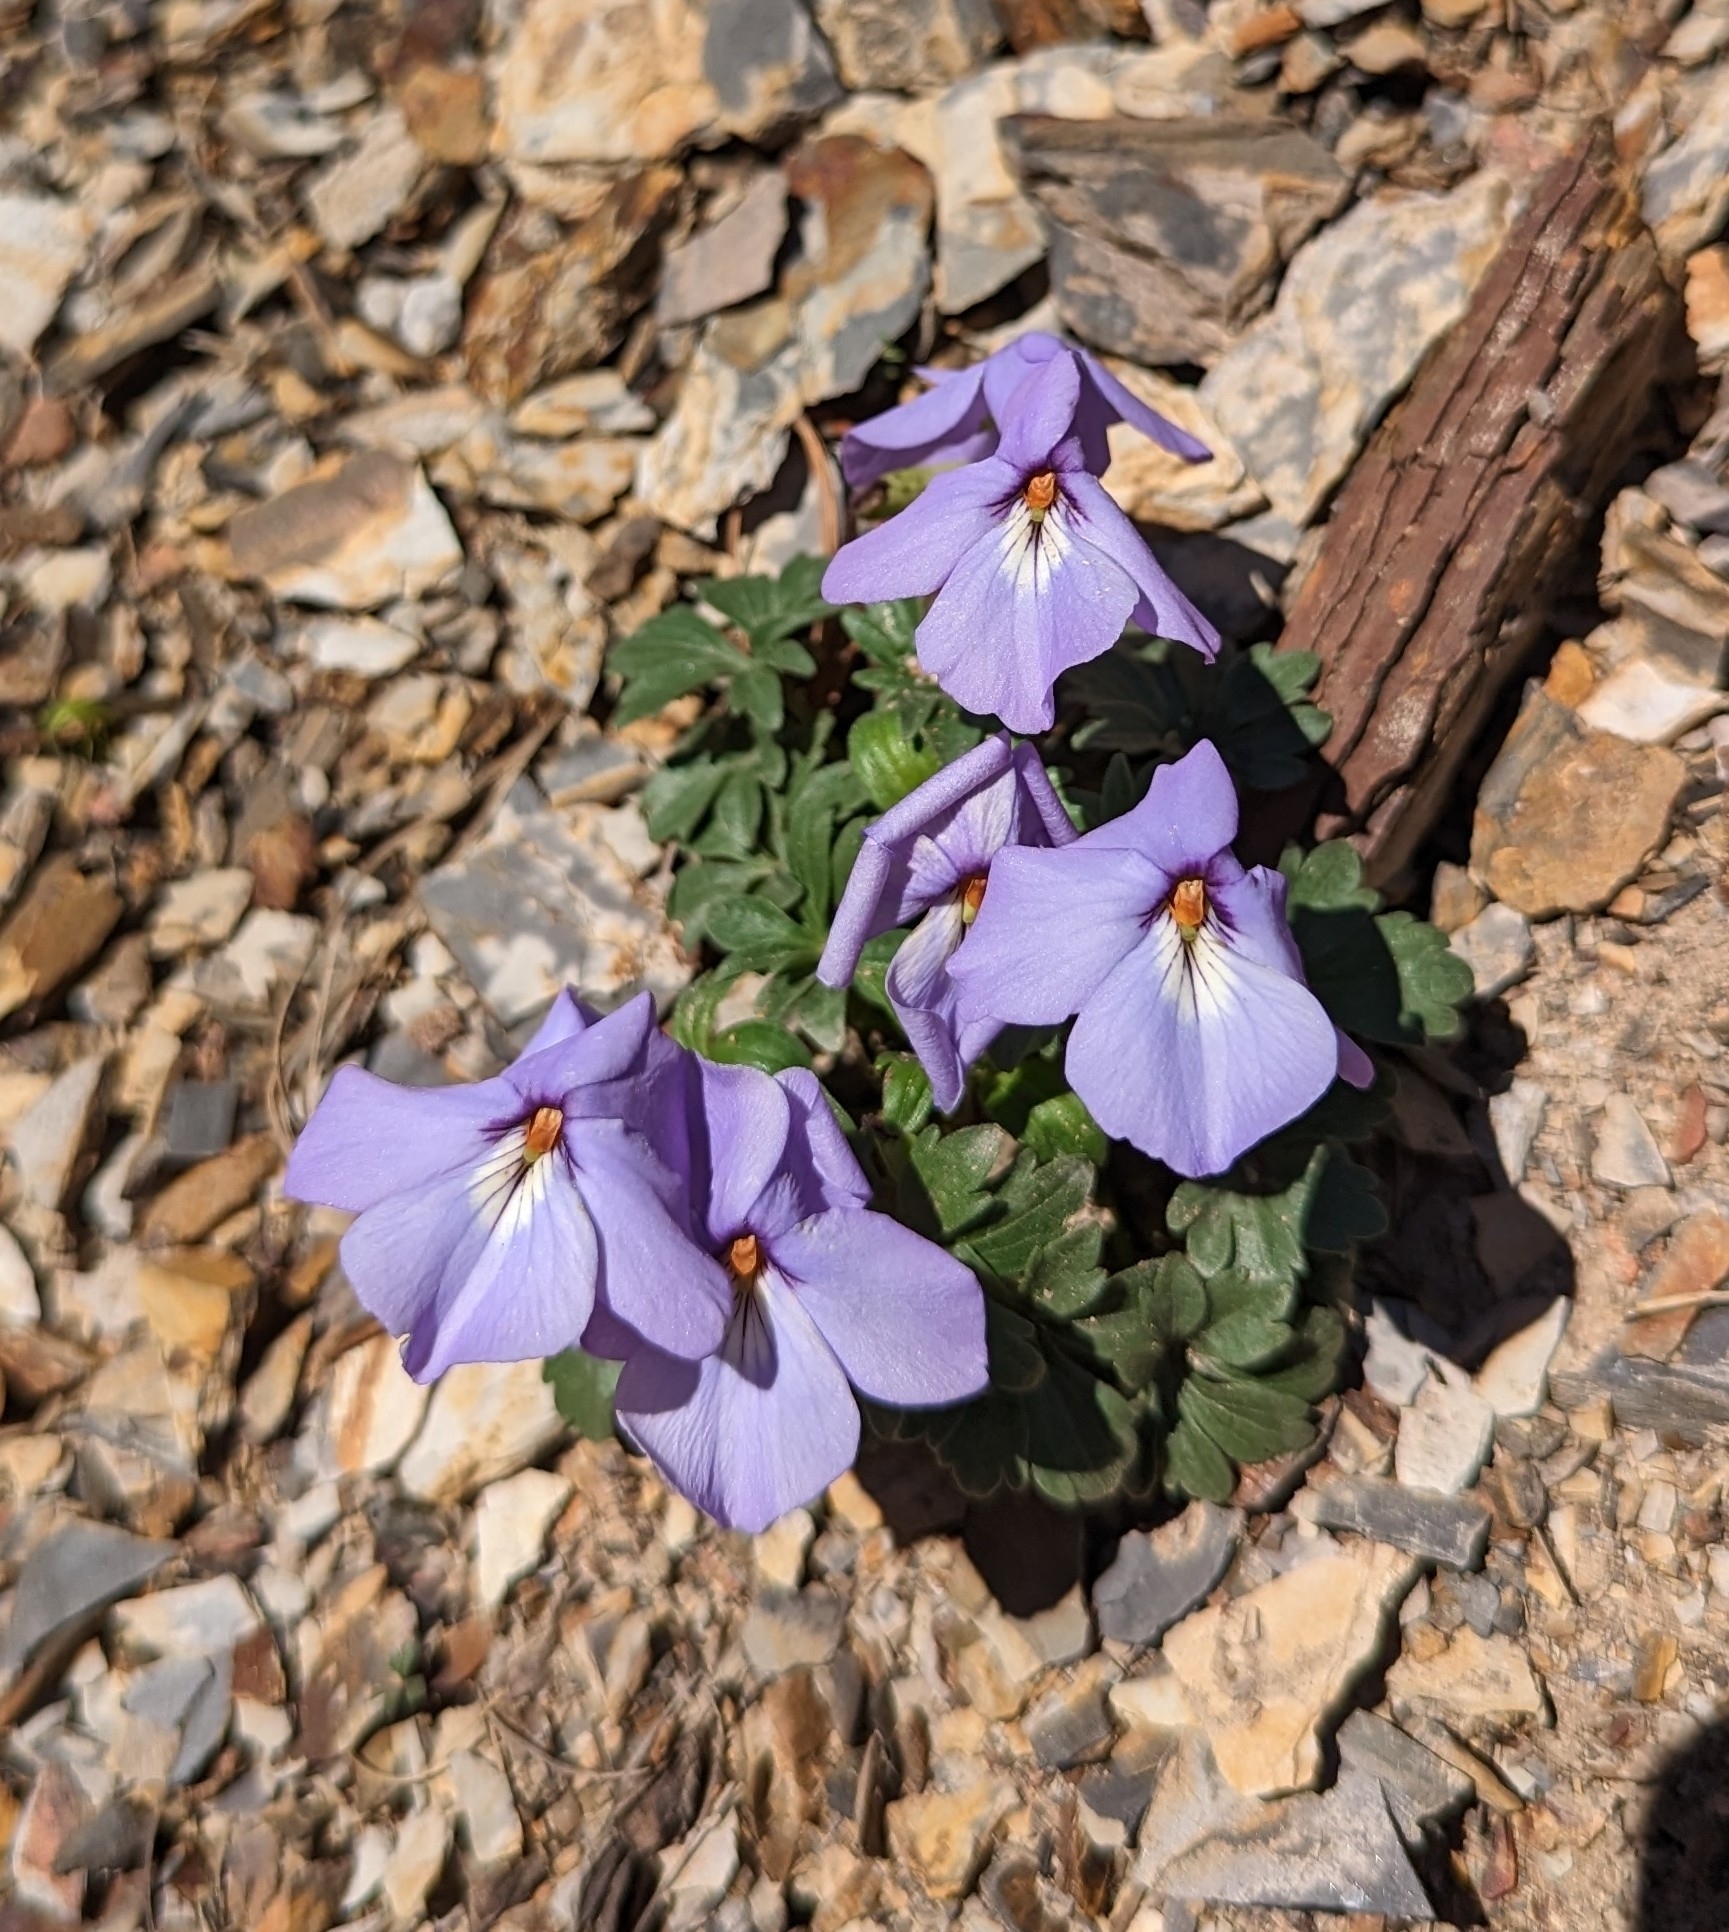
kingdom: Plantae
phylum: Tracheophyta
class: Magnoliopsida
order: Malpighiales
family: Violaceae
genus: Viola
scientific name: Viola pedata
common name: Pansy violet
